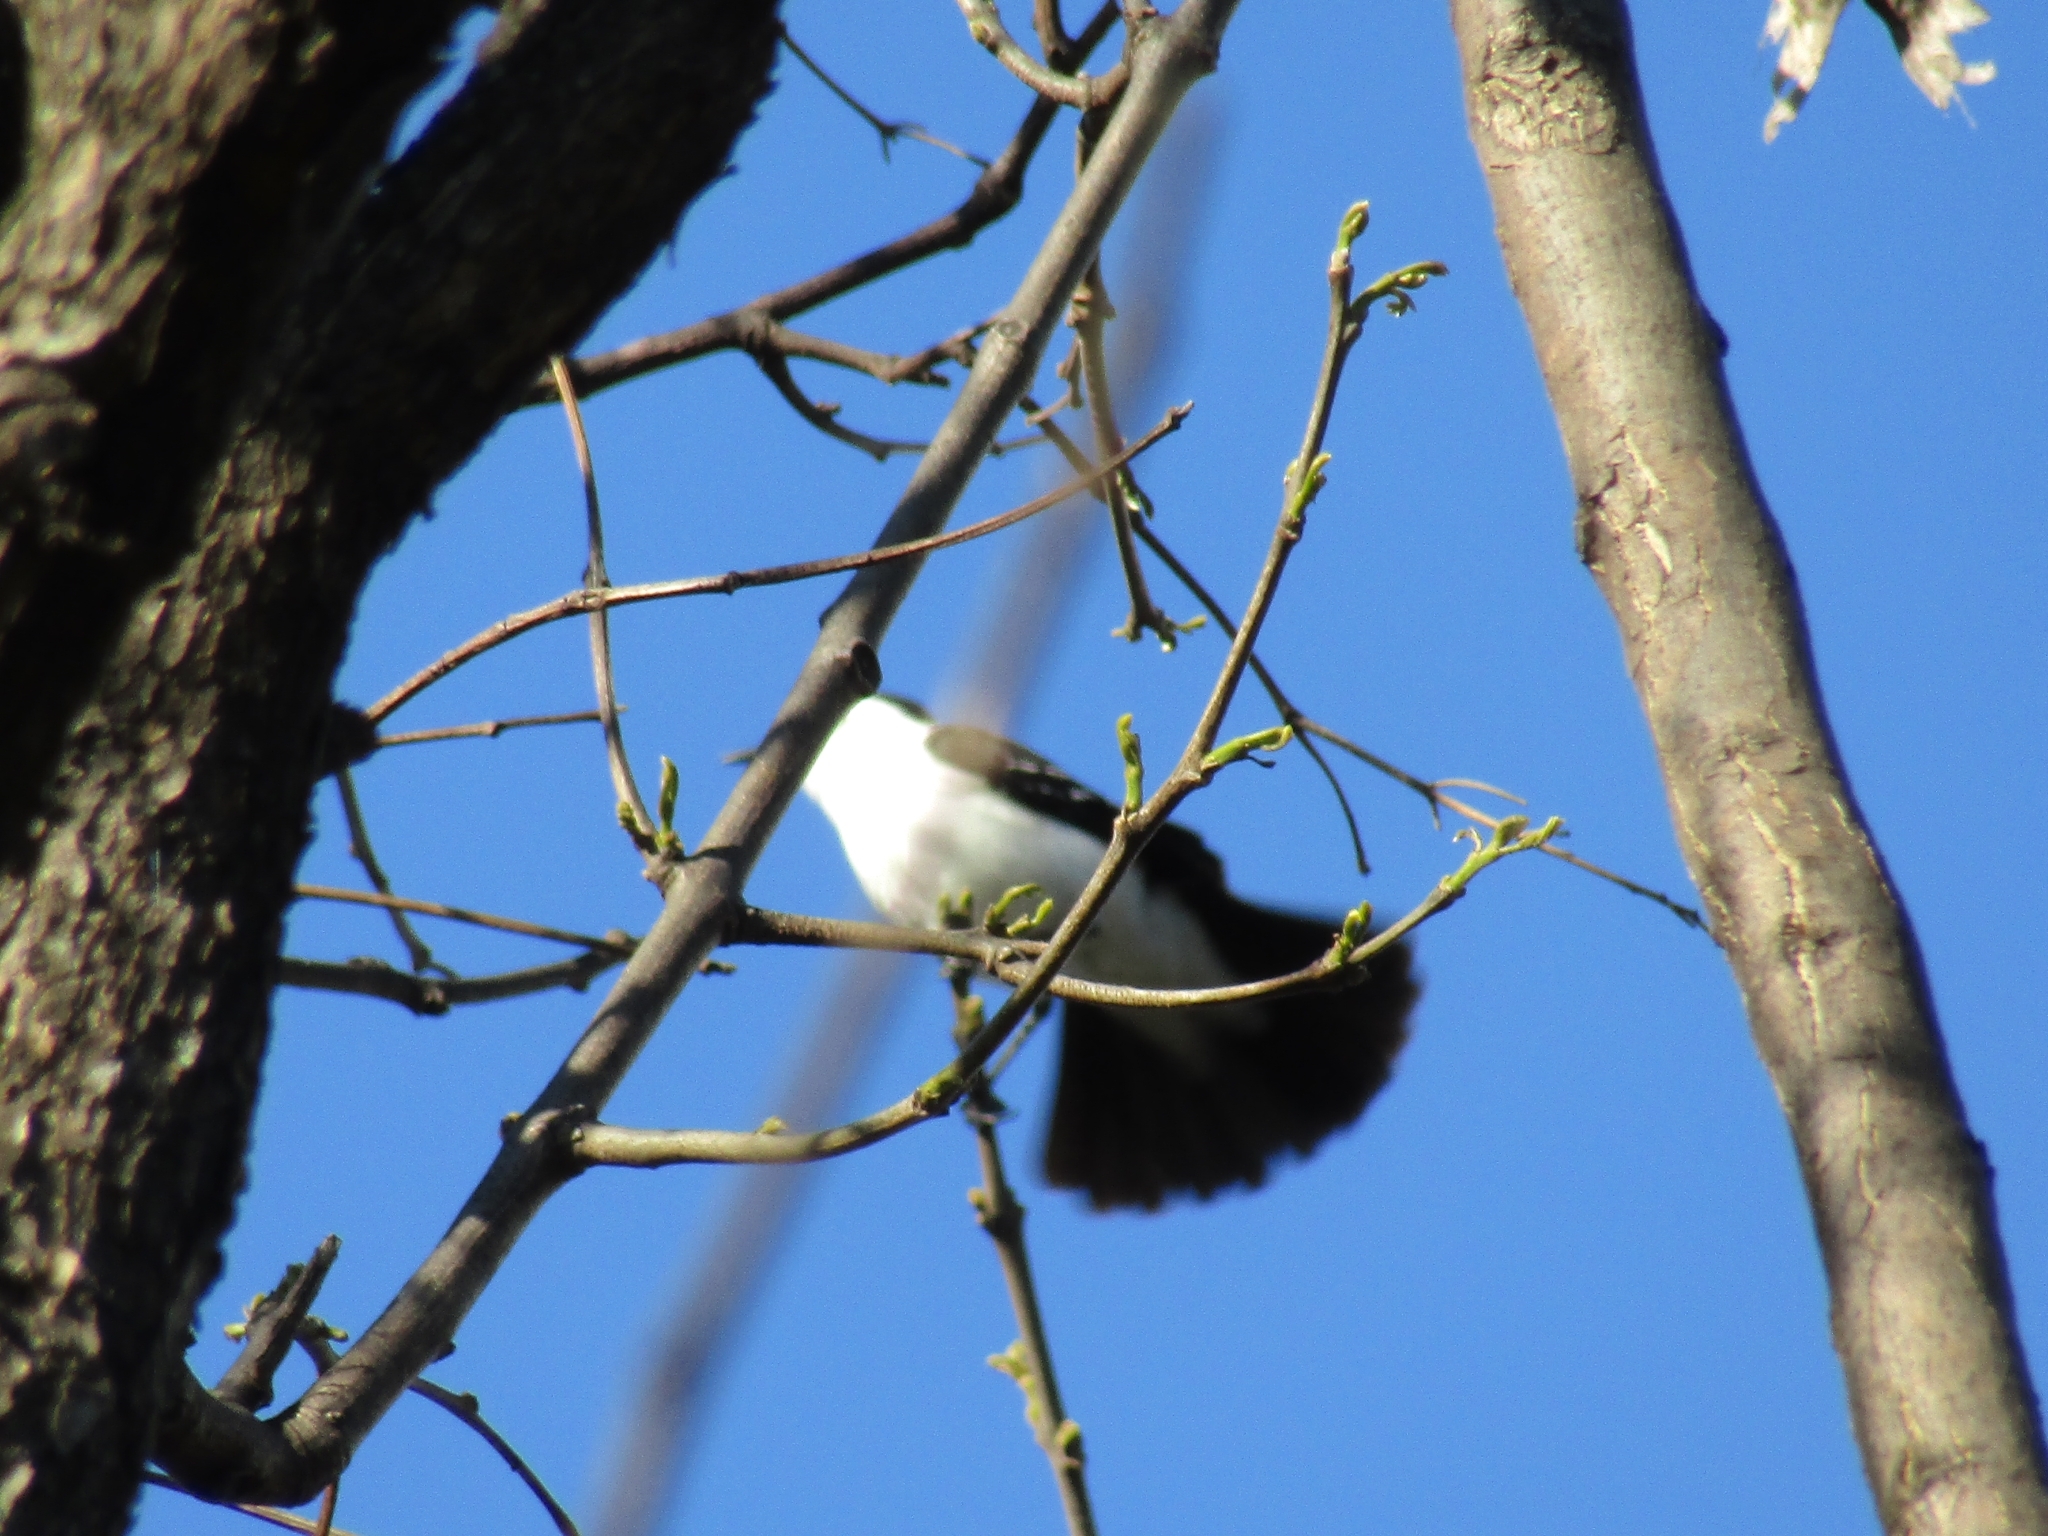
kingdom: Animalia
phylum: Chordata
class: Aves
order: Passeriformes
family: Tyrannidae
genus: Fluvicola
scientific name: Fluvicola pica
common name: Pied water-tyrant
